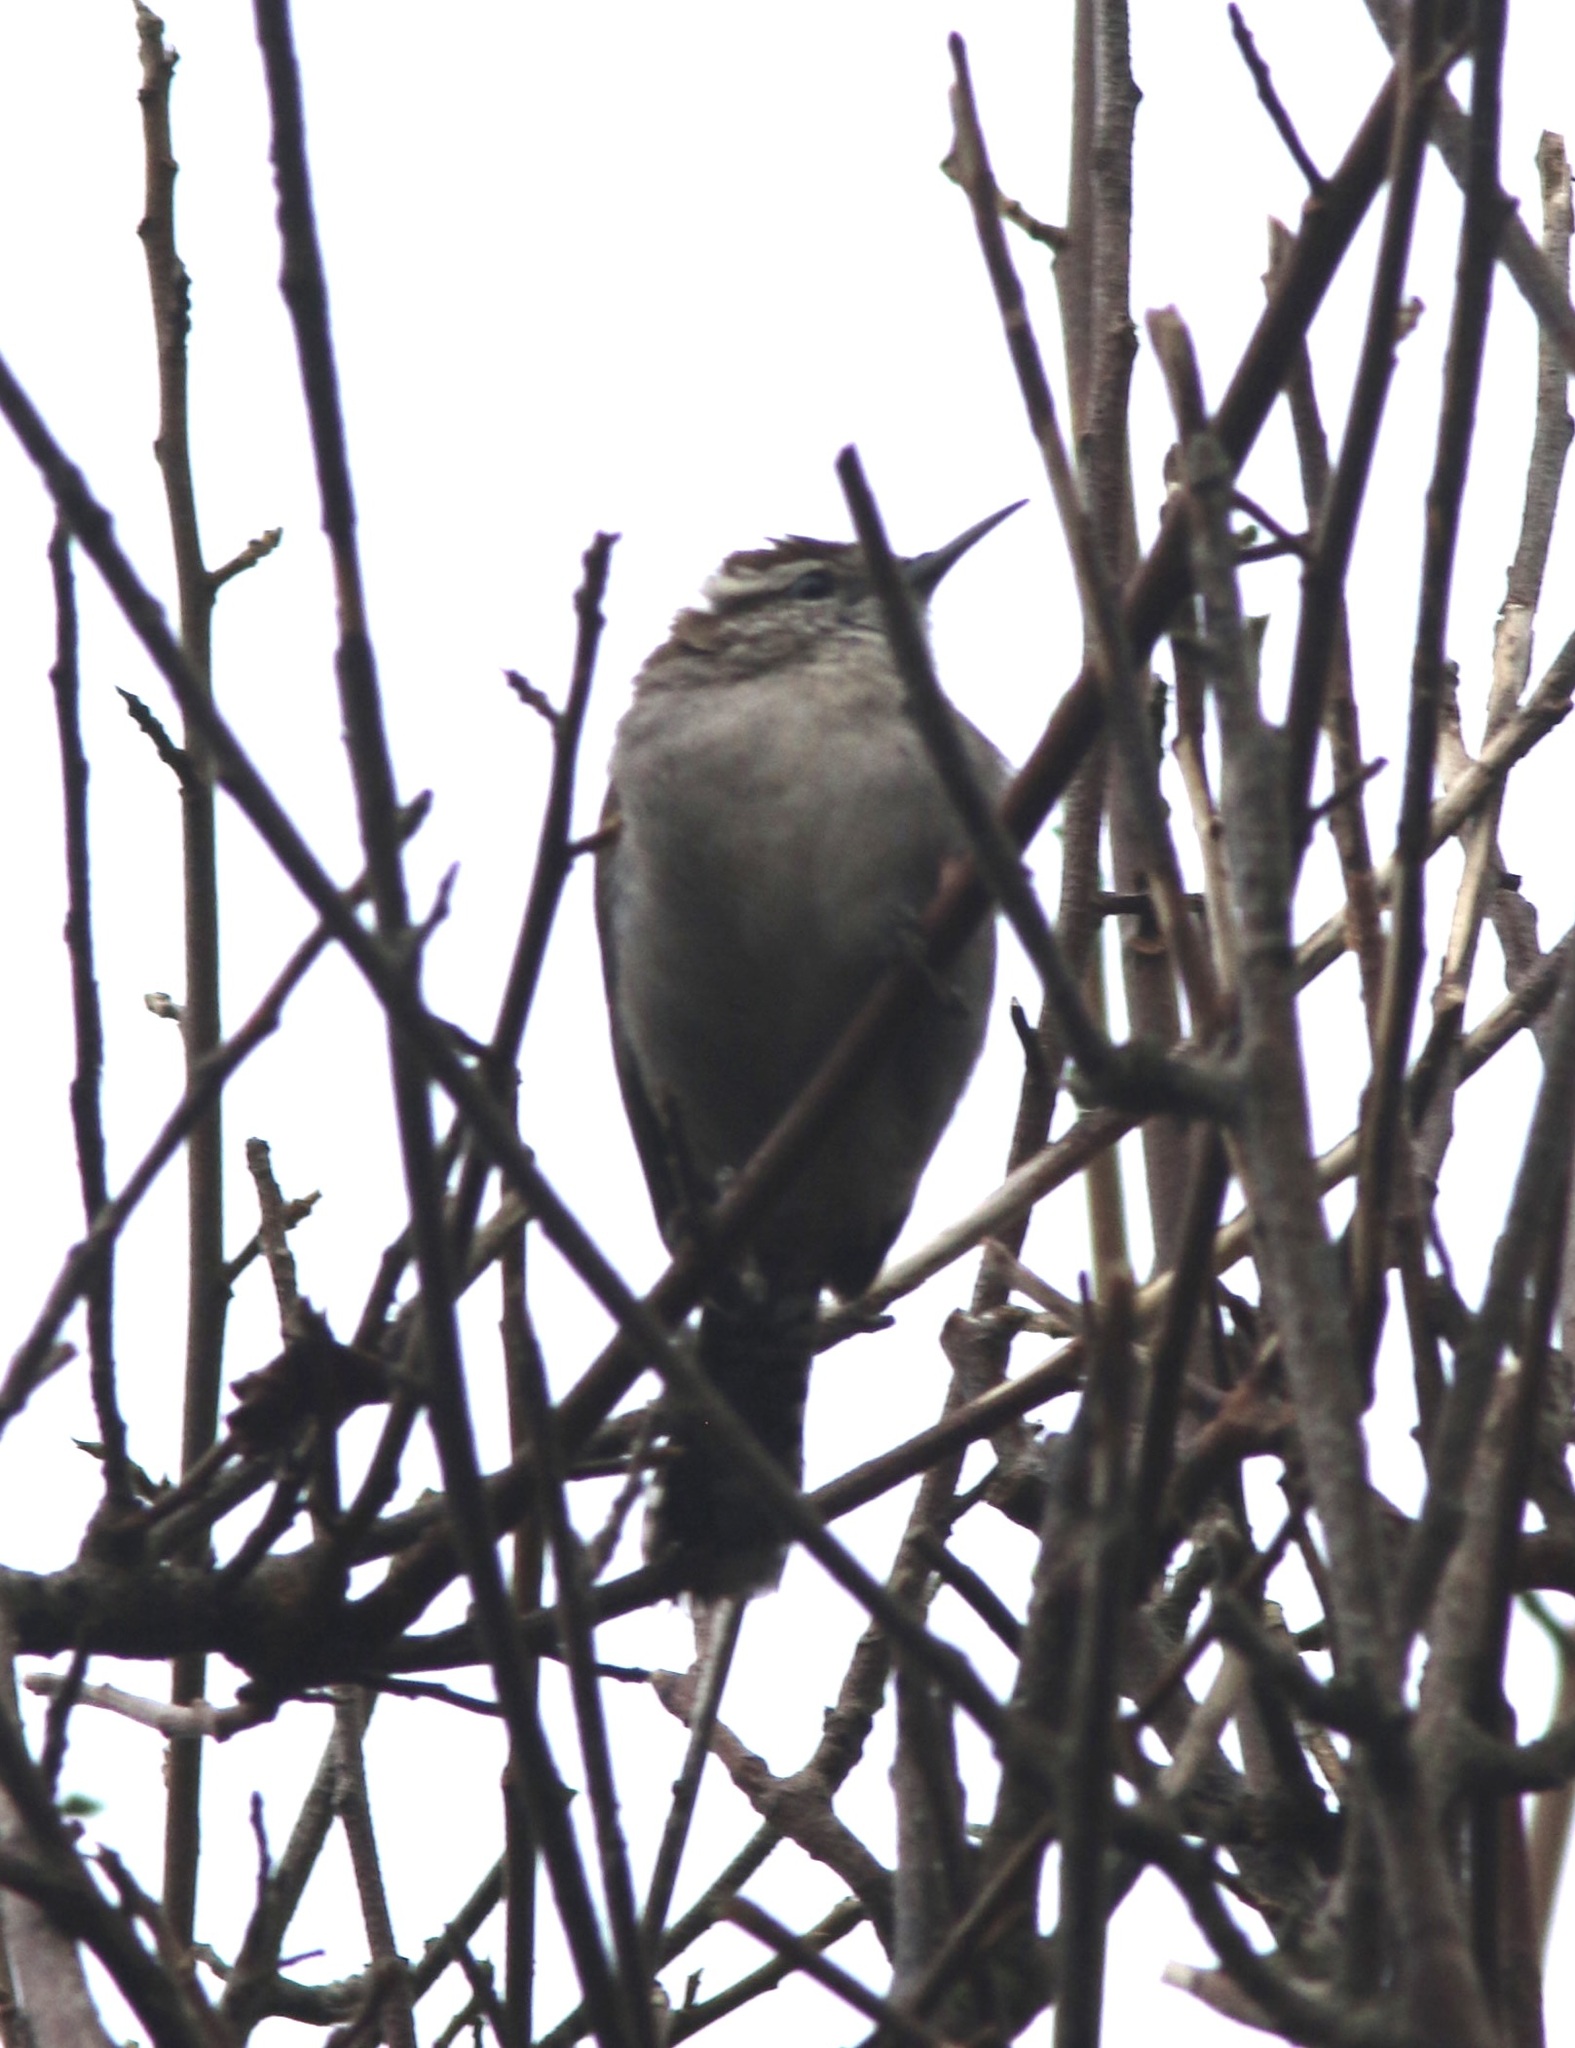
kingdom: Animalia
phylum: Chordata
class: Aves
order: Passeriformes
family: Troglodytidae
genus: Thryomanes
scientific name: Thryomanes bewickii
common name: Bewick's wren
